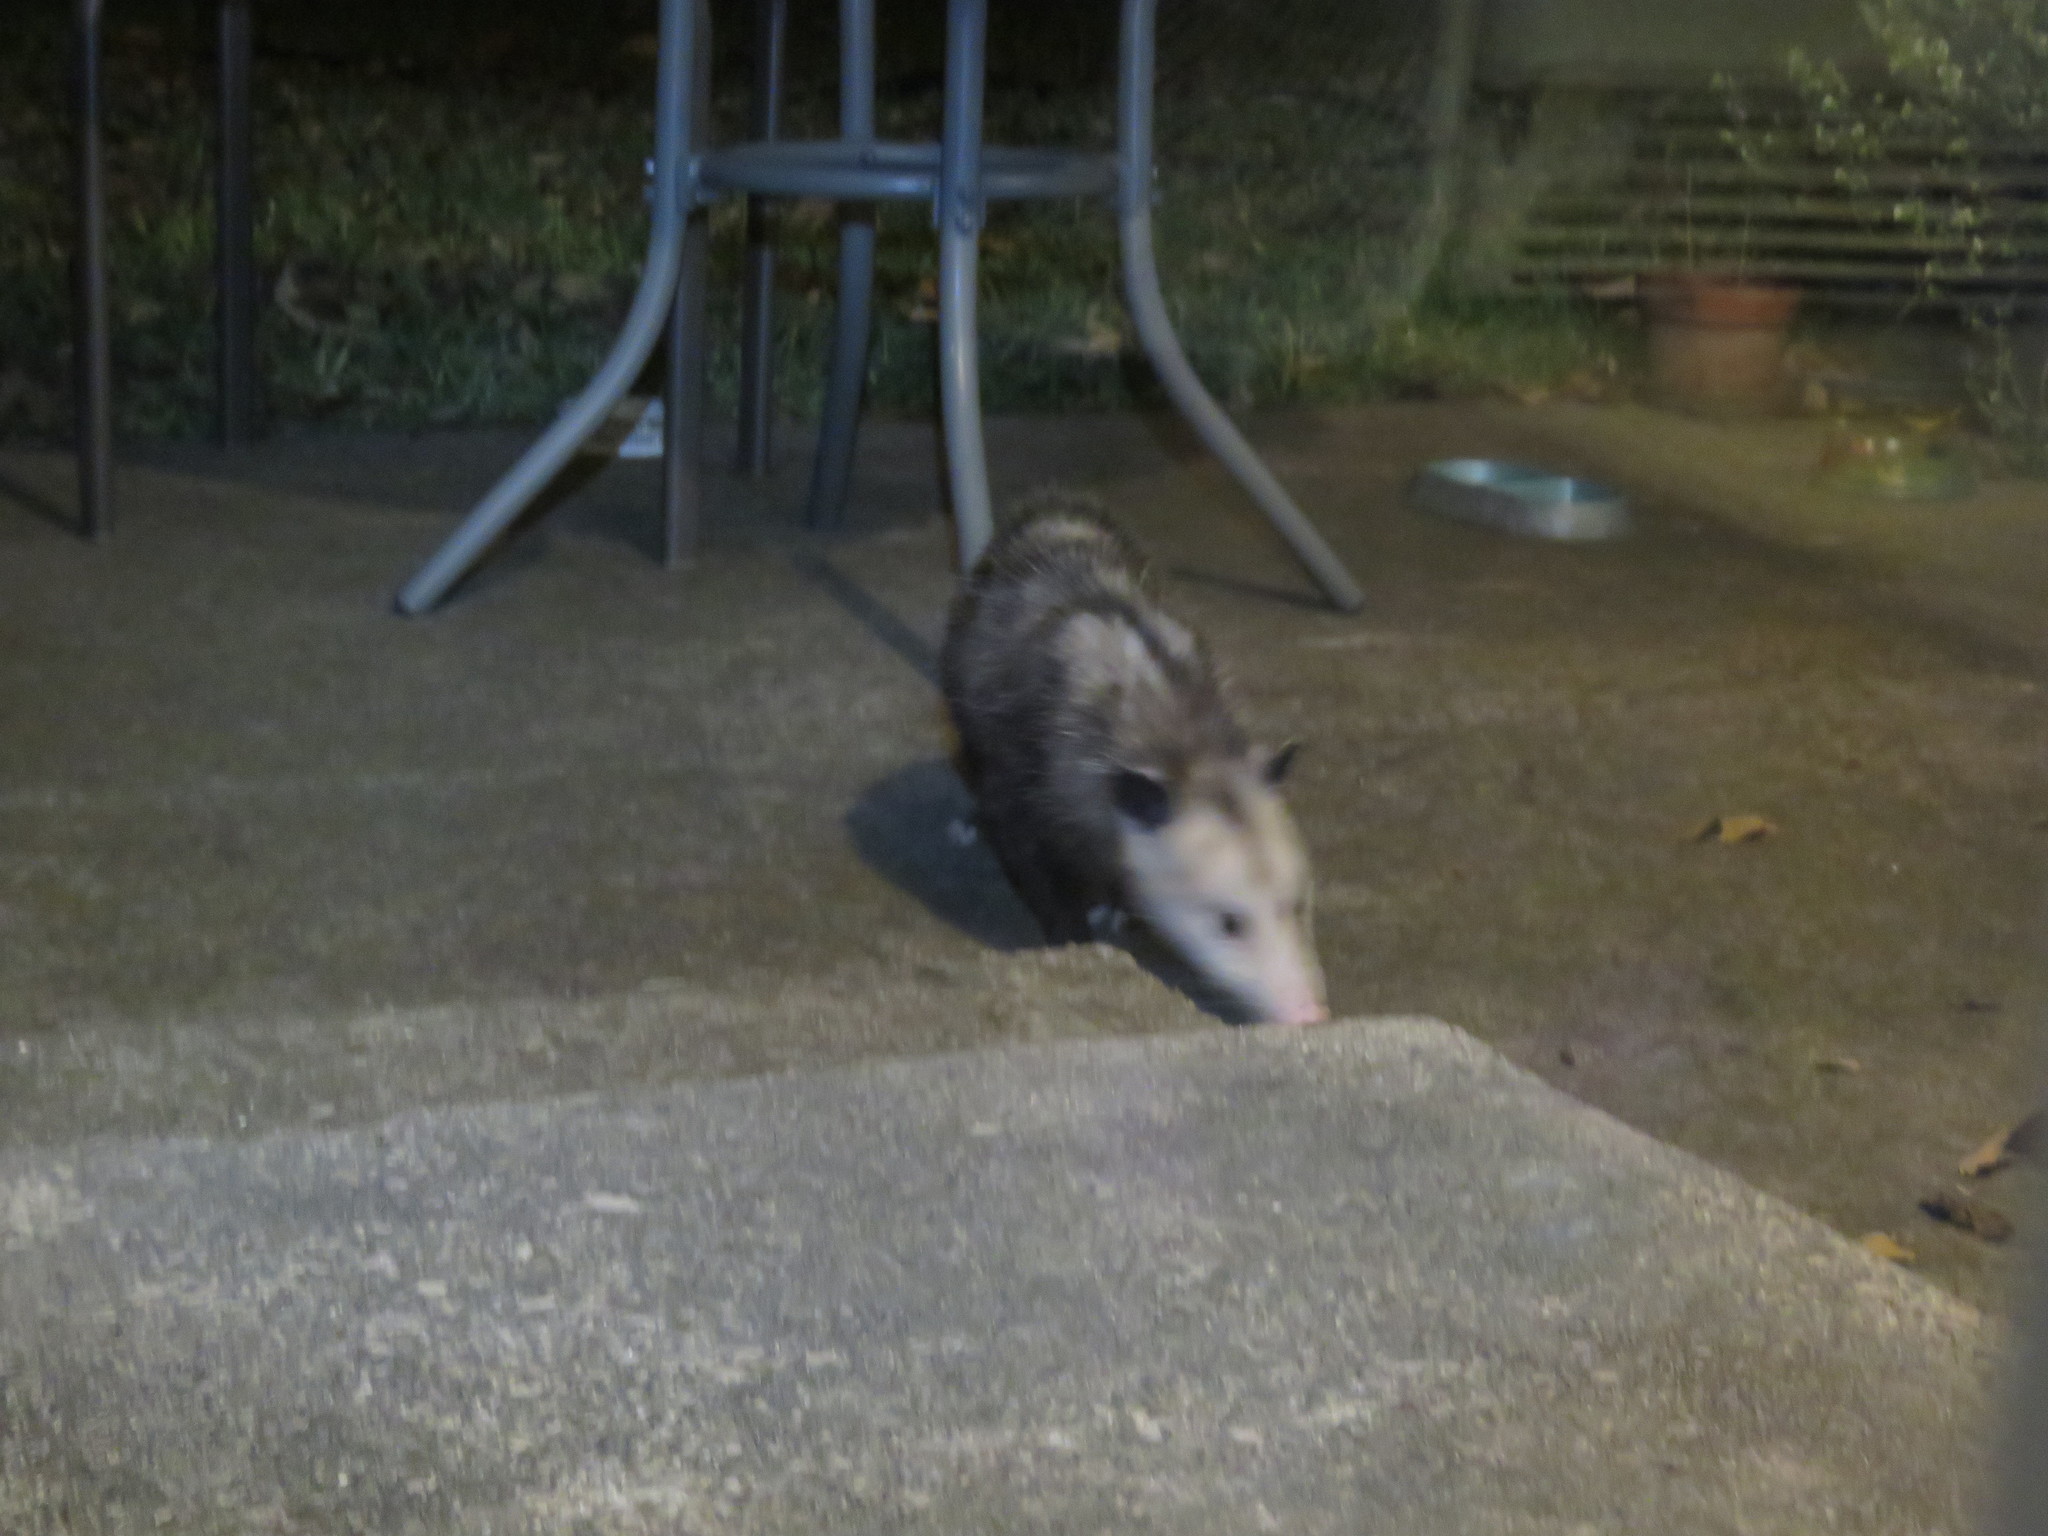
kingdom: Animalia
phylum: Chordata
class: Mammalia
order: Didelphimorphia
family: Didelphidae
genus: Didelphis
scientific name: Didelphis virginiana
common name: Virginia opossum
